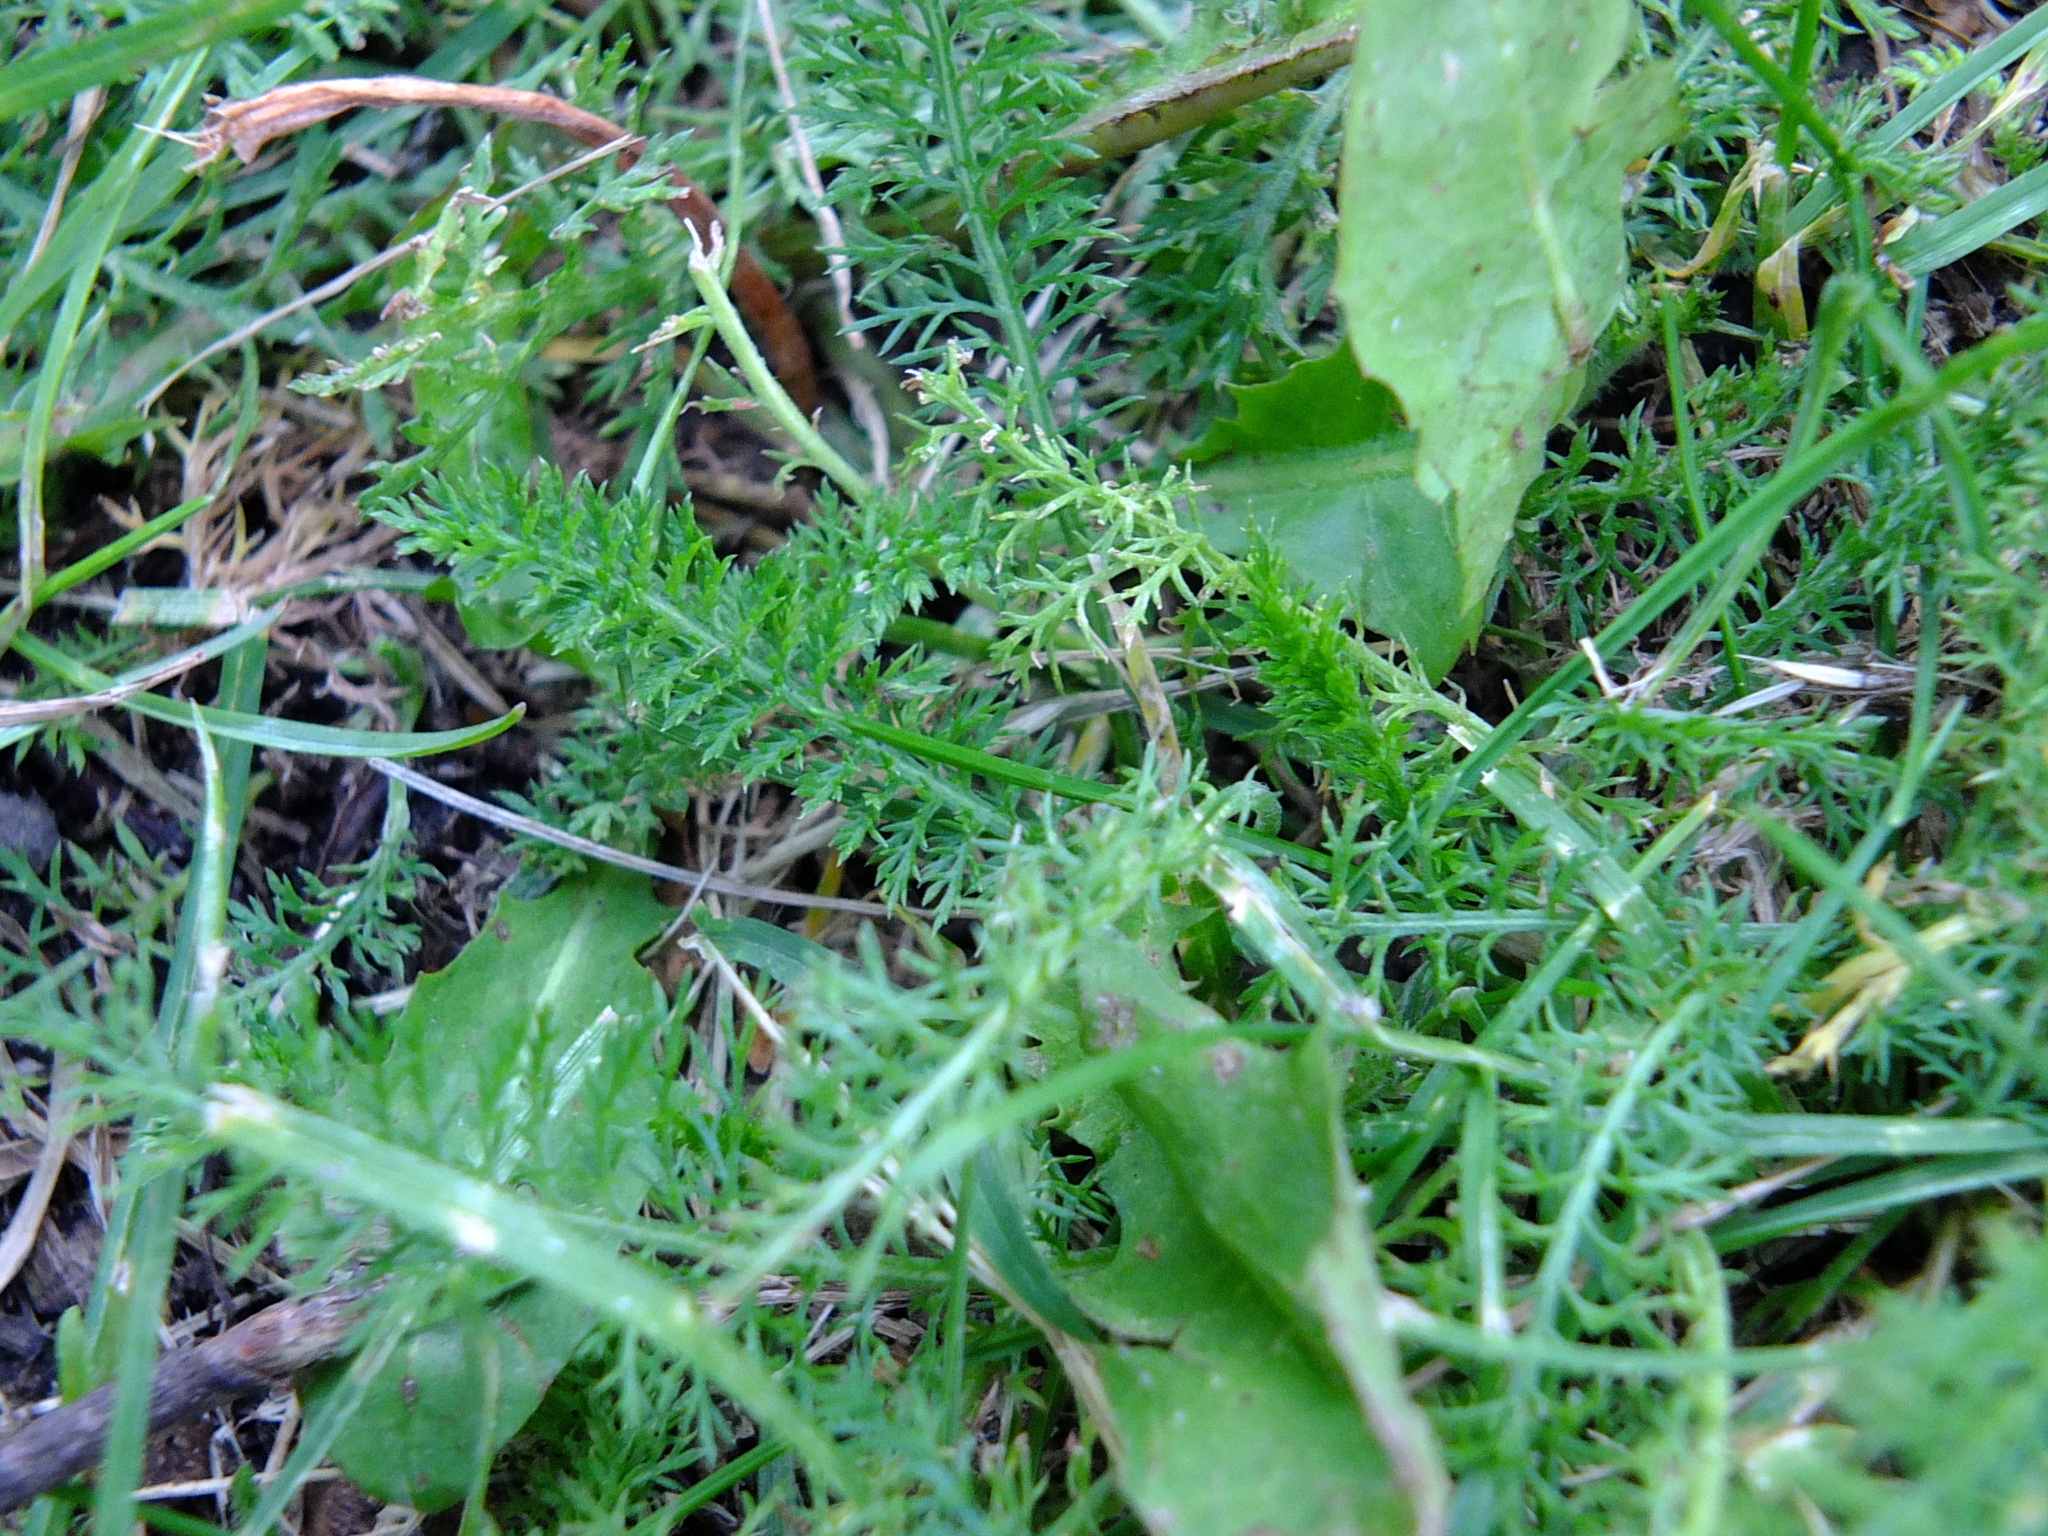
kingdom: Plantae
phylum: Tracheophyta
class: Magnoliopsida
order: Asterales
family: Asteraceae
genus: Achillea
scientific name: Achillea millefolium
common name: Yarrow
